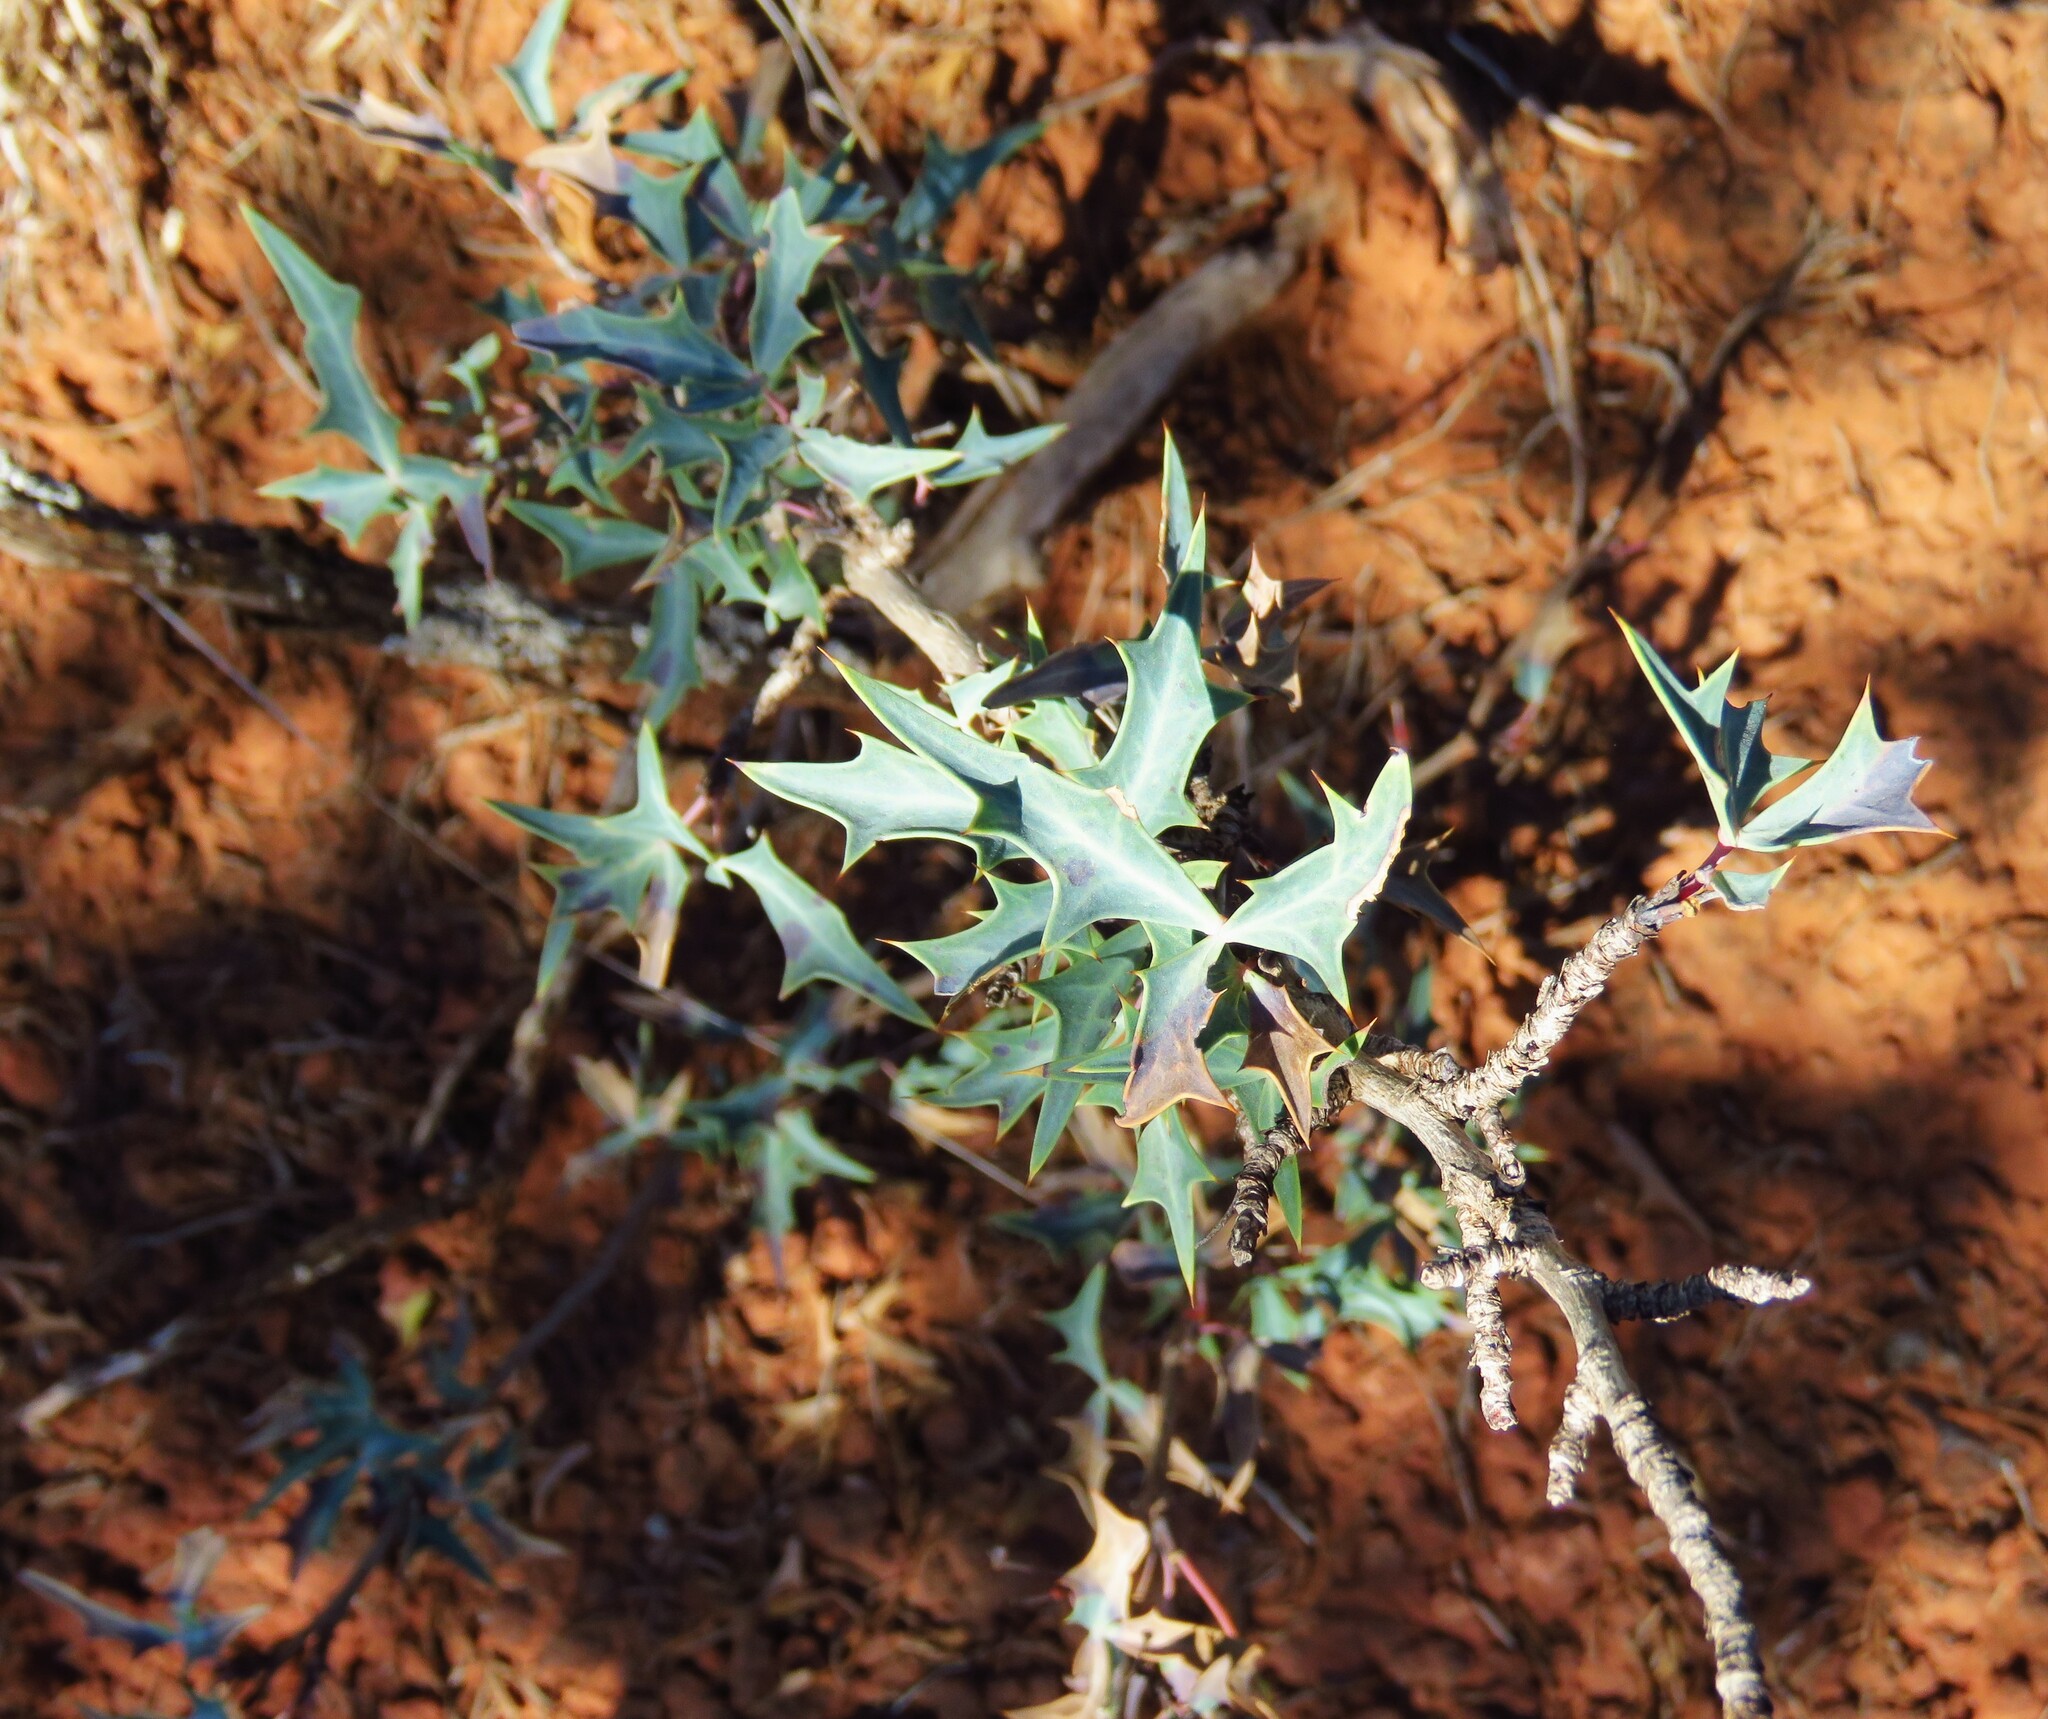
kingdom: Plantae
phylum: Tracheophyta
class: Magnoliopsida
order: Ranunculales
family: Berberidaceae
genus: Alloberberis
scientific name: Alloberberis trifoliolata
